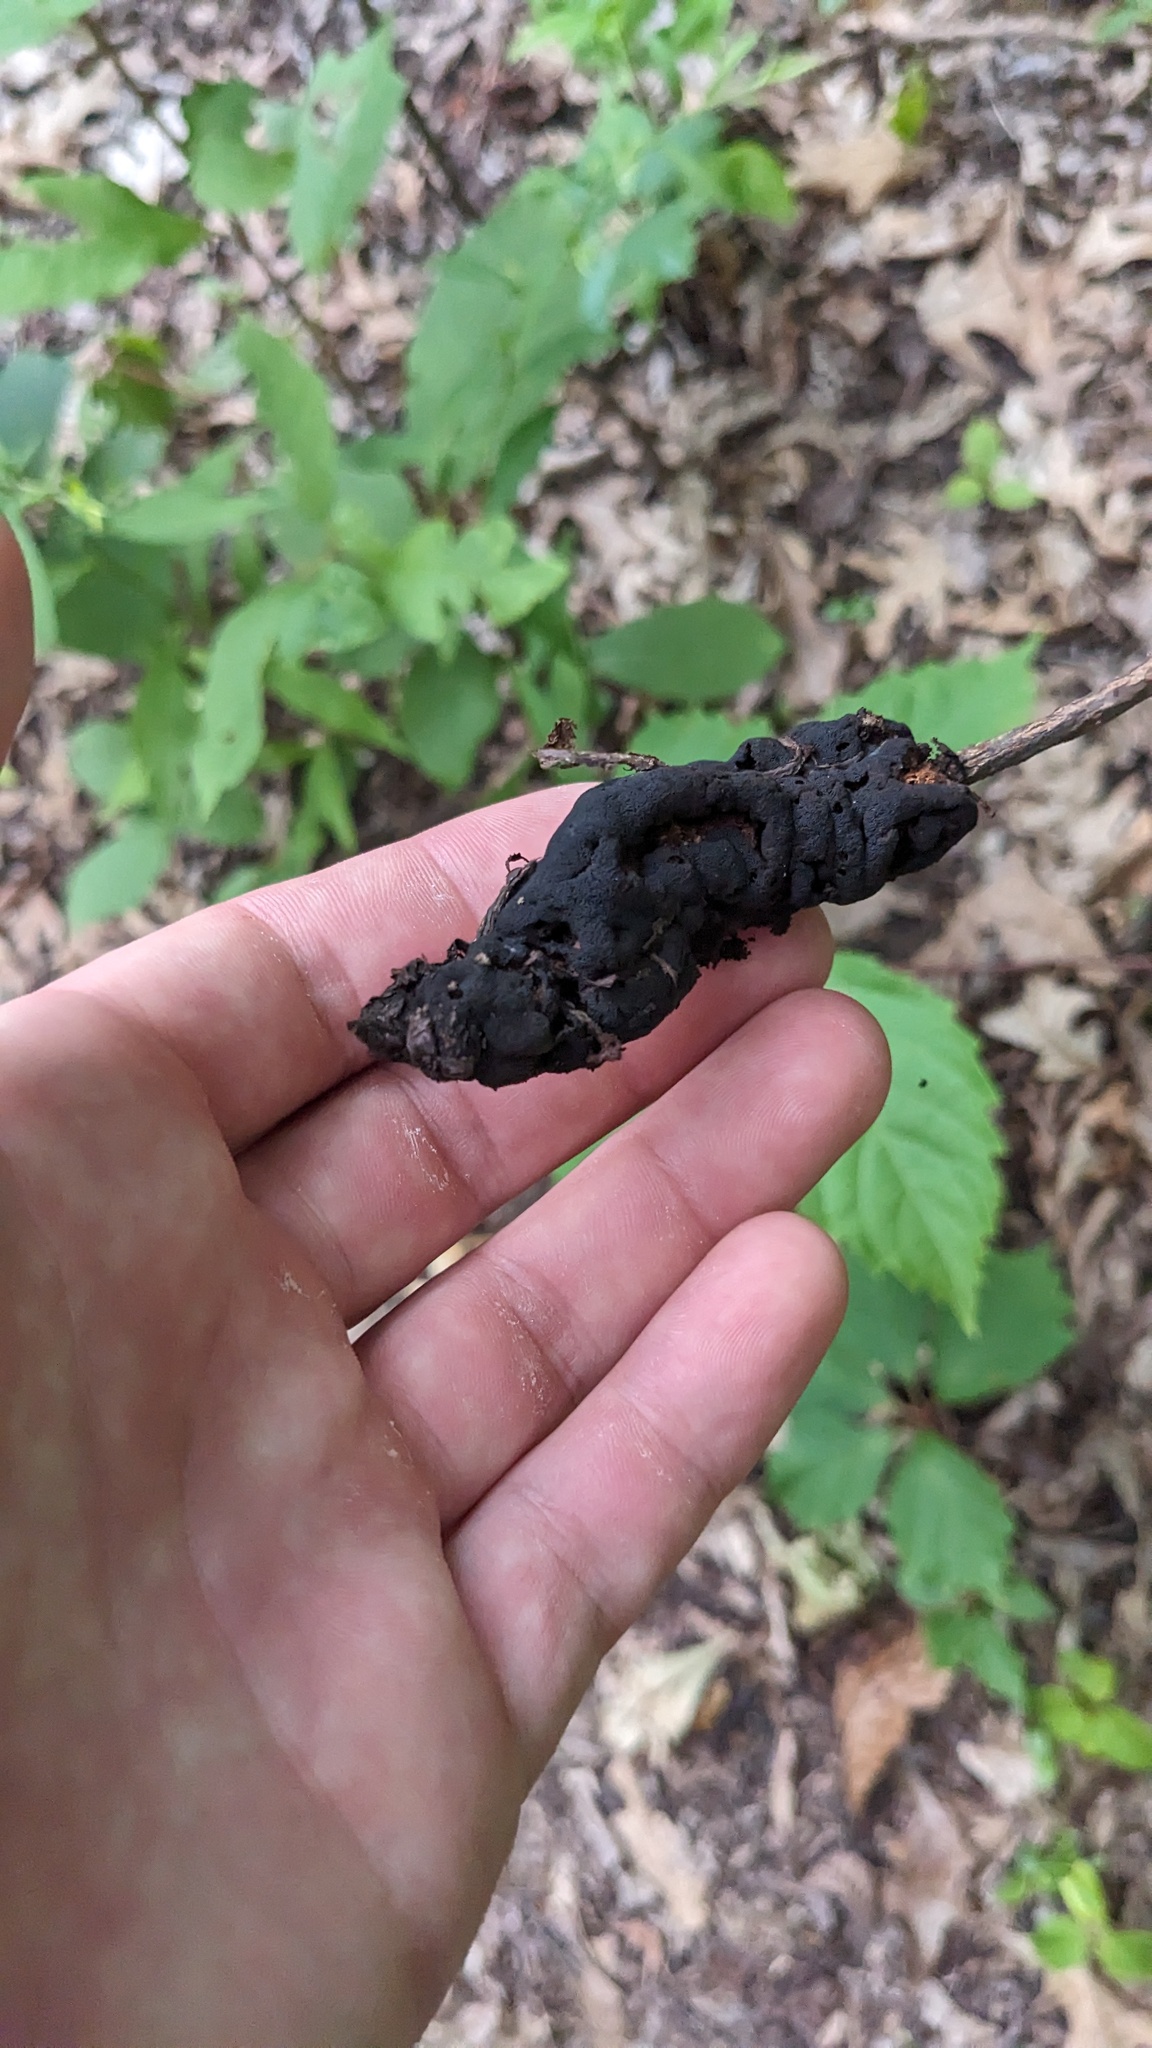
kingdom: Fungi
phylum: Ascomycota
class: Dothideomycetes
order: Venturiales
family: Venturiaceae
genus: Apiosporina
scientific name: Apiosporina morbosa
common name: Black knot
